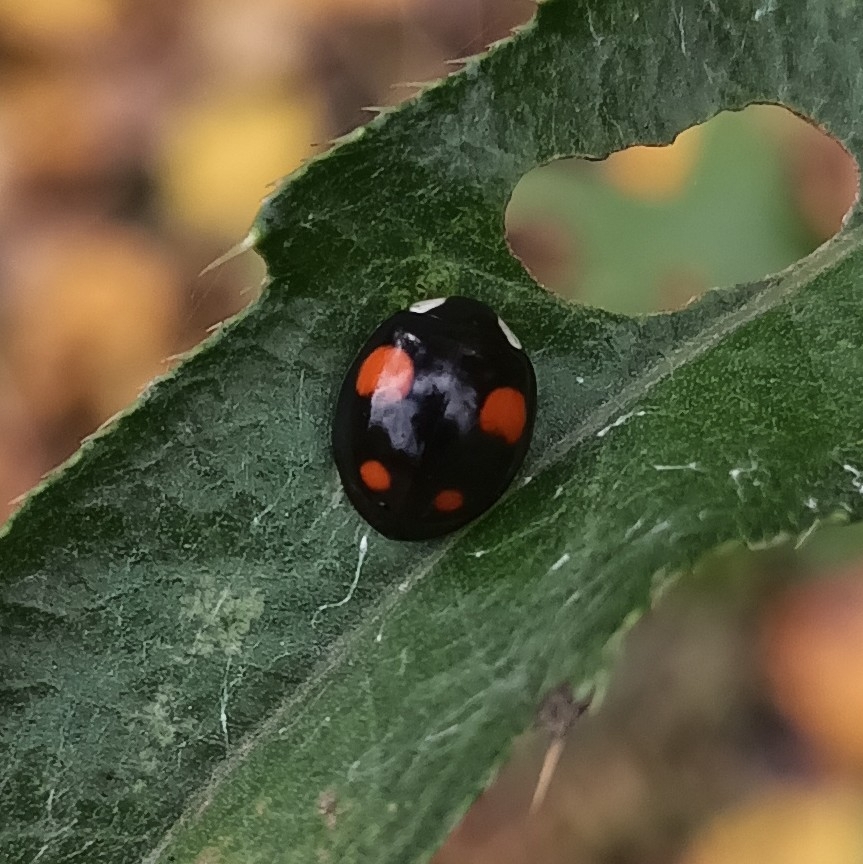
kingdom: Animalia
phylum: Arthropoda
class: Insecta
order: Coleoptera
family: Coccinellidae
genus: Harmonia
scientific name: Harmonia axyridis
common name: Harlequin ladybird
